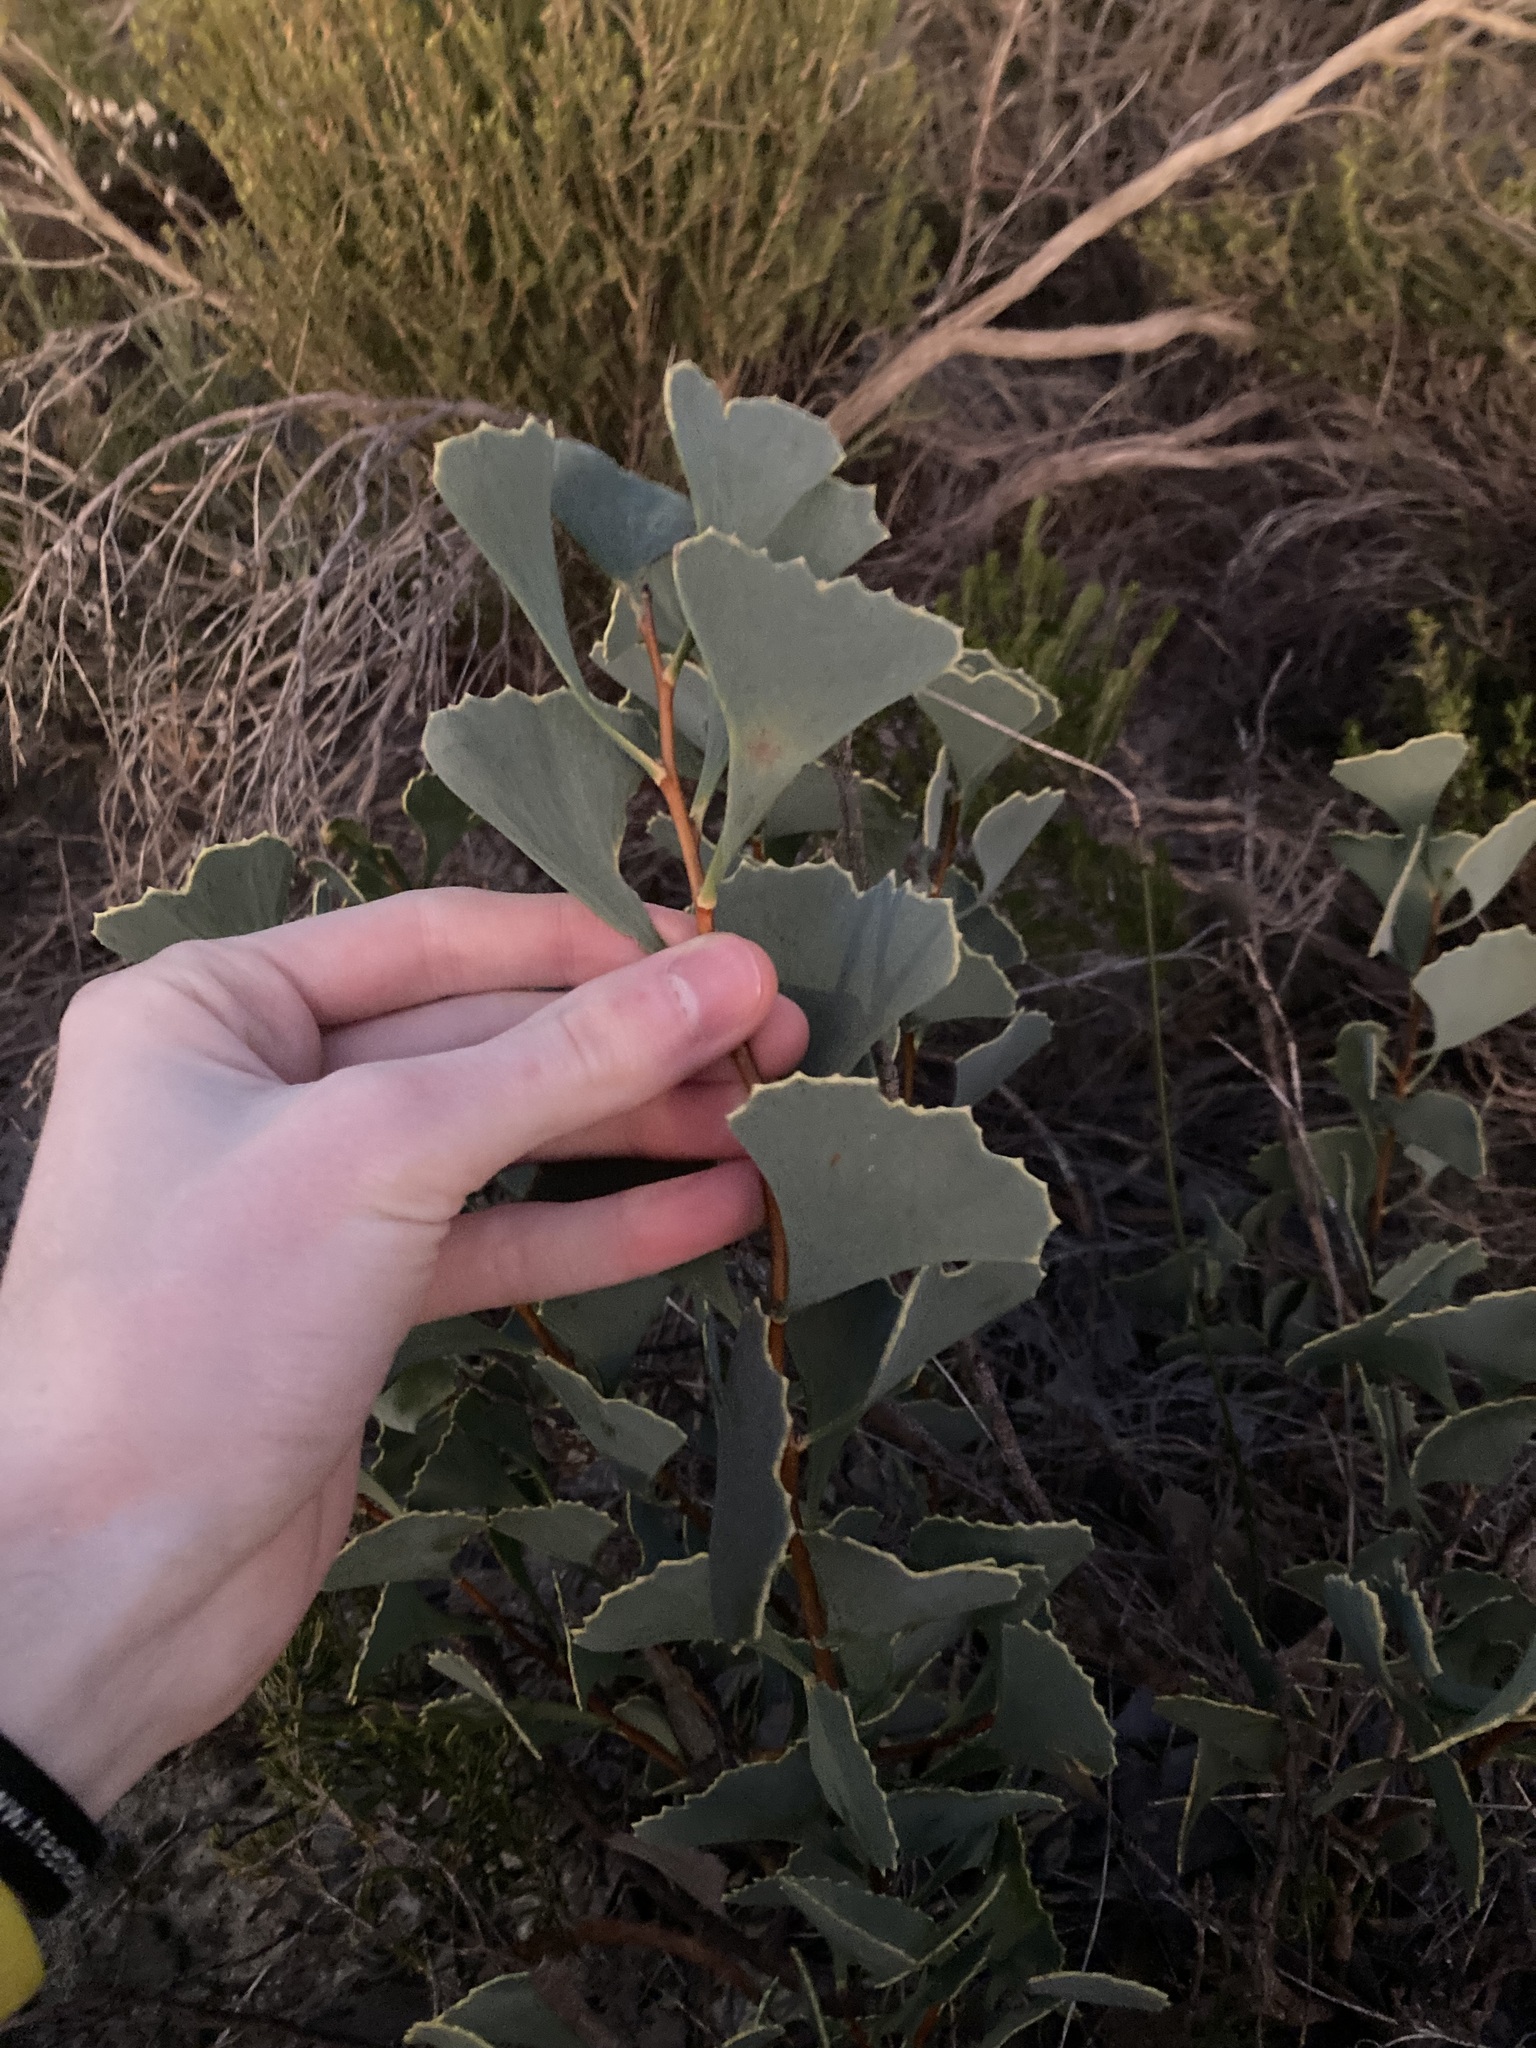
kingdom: Plantae
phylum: Tracheophyta
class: Magnoliopsida
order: Proteales
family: Proteaceae
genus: Hakea
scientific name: Hakea flabellifolia
